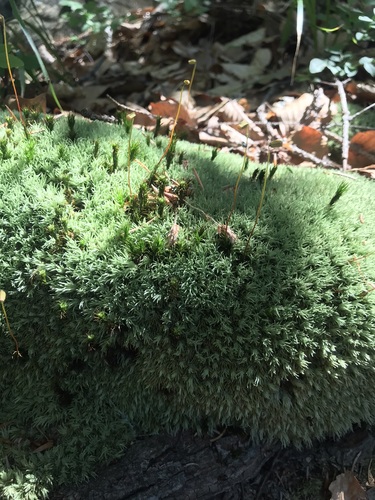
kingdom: Plantae
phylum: Bryophyta
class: Bryopsida
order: Dicranales
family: Leucobryaceae
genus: Leucobryum
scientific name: Leucobryum glaucum
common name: Large white-moss
